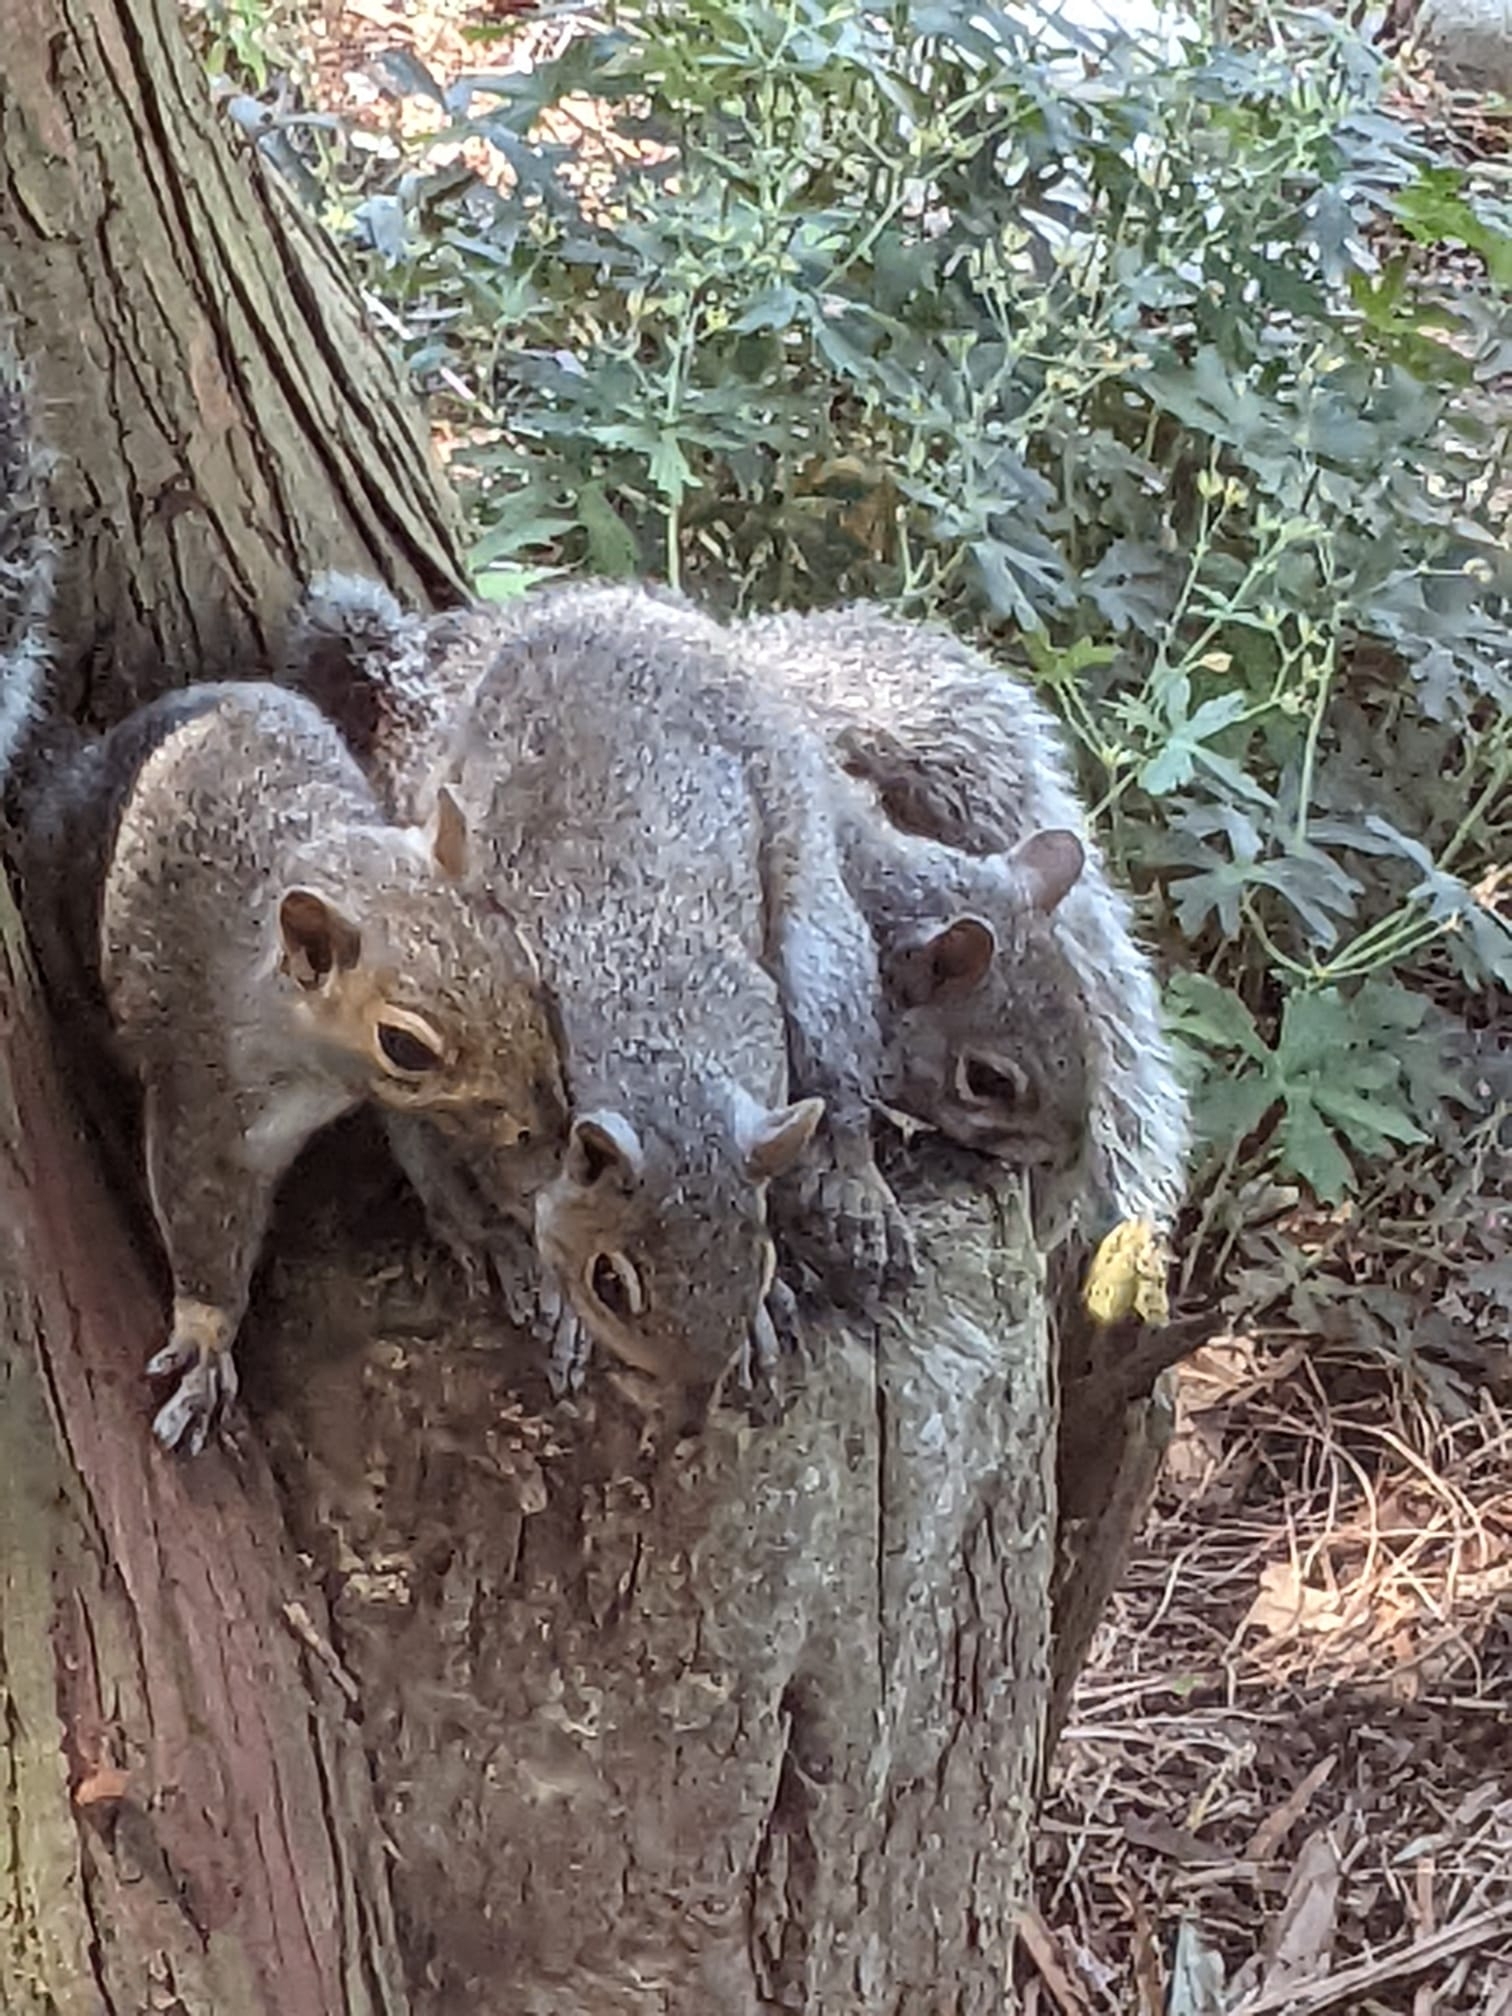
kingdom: Animalia
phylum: Chordata
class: Mammalia
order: Rodentia
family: Sciuridae
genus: Sciurus
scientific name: Sciurus carolinensis
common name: Eastern gray squirrel
